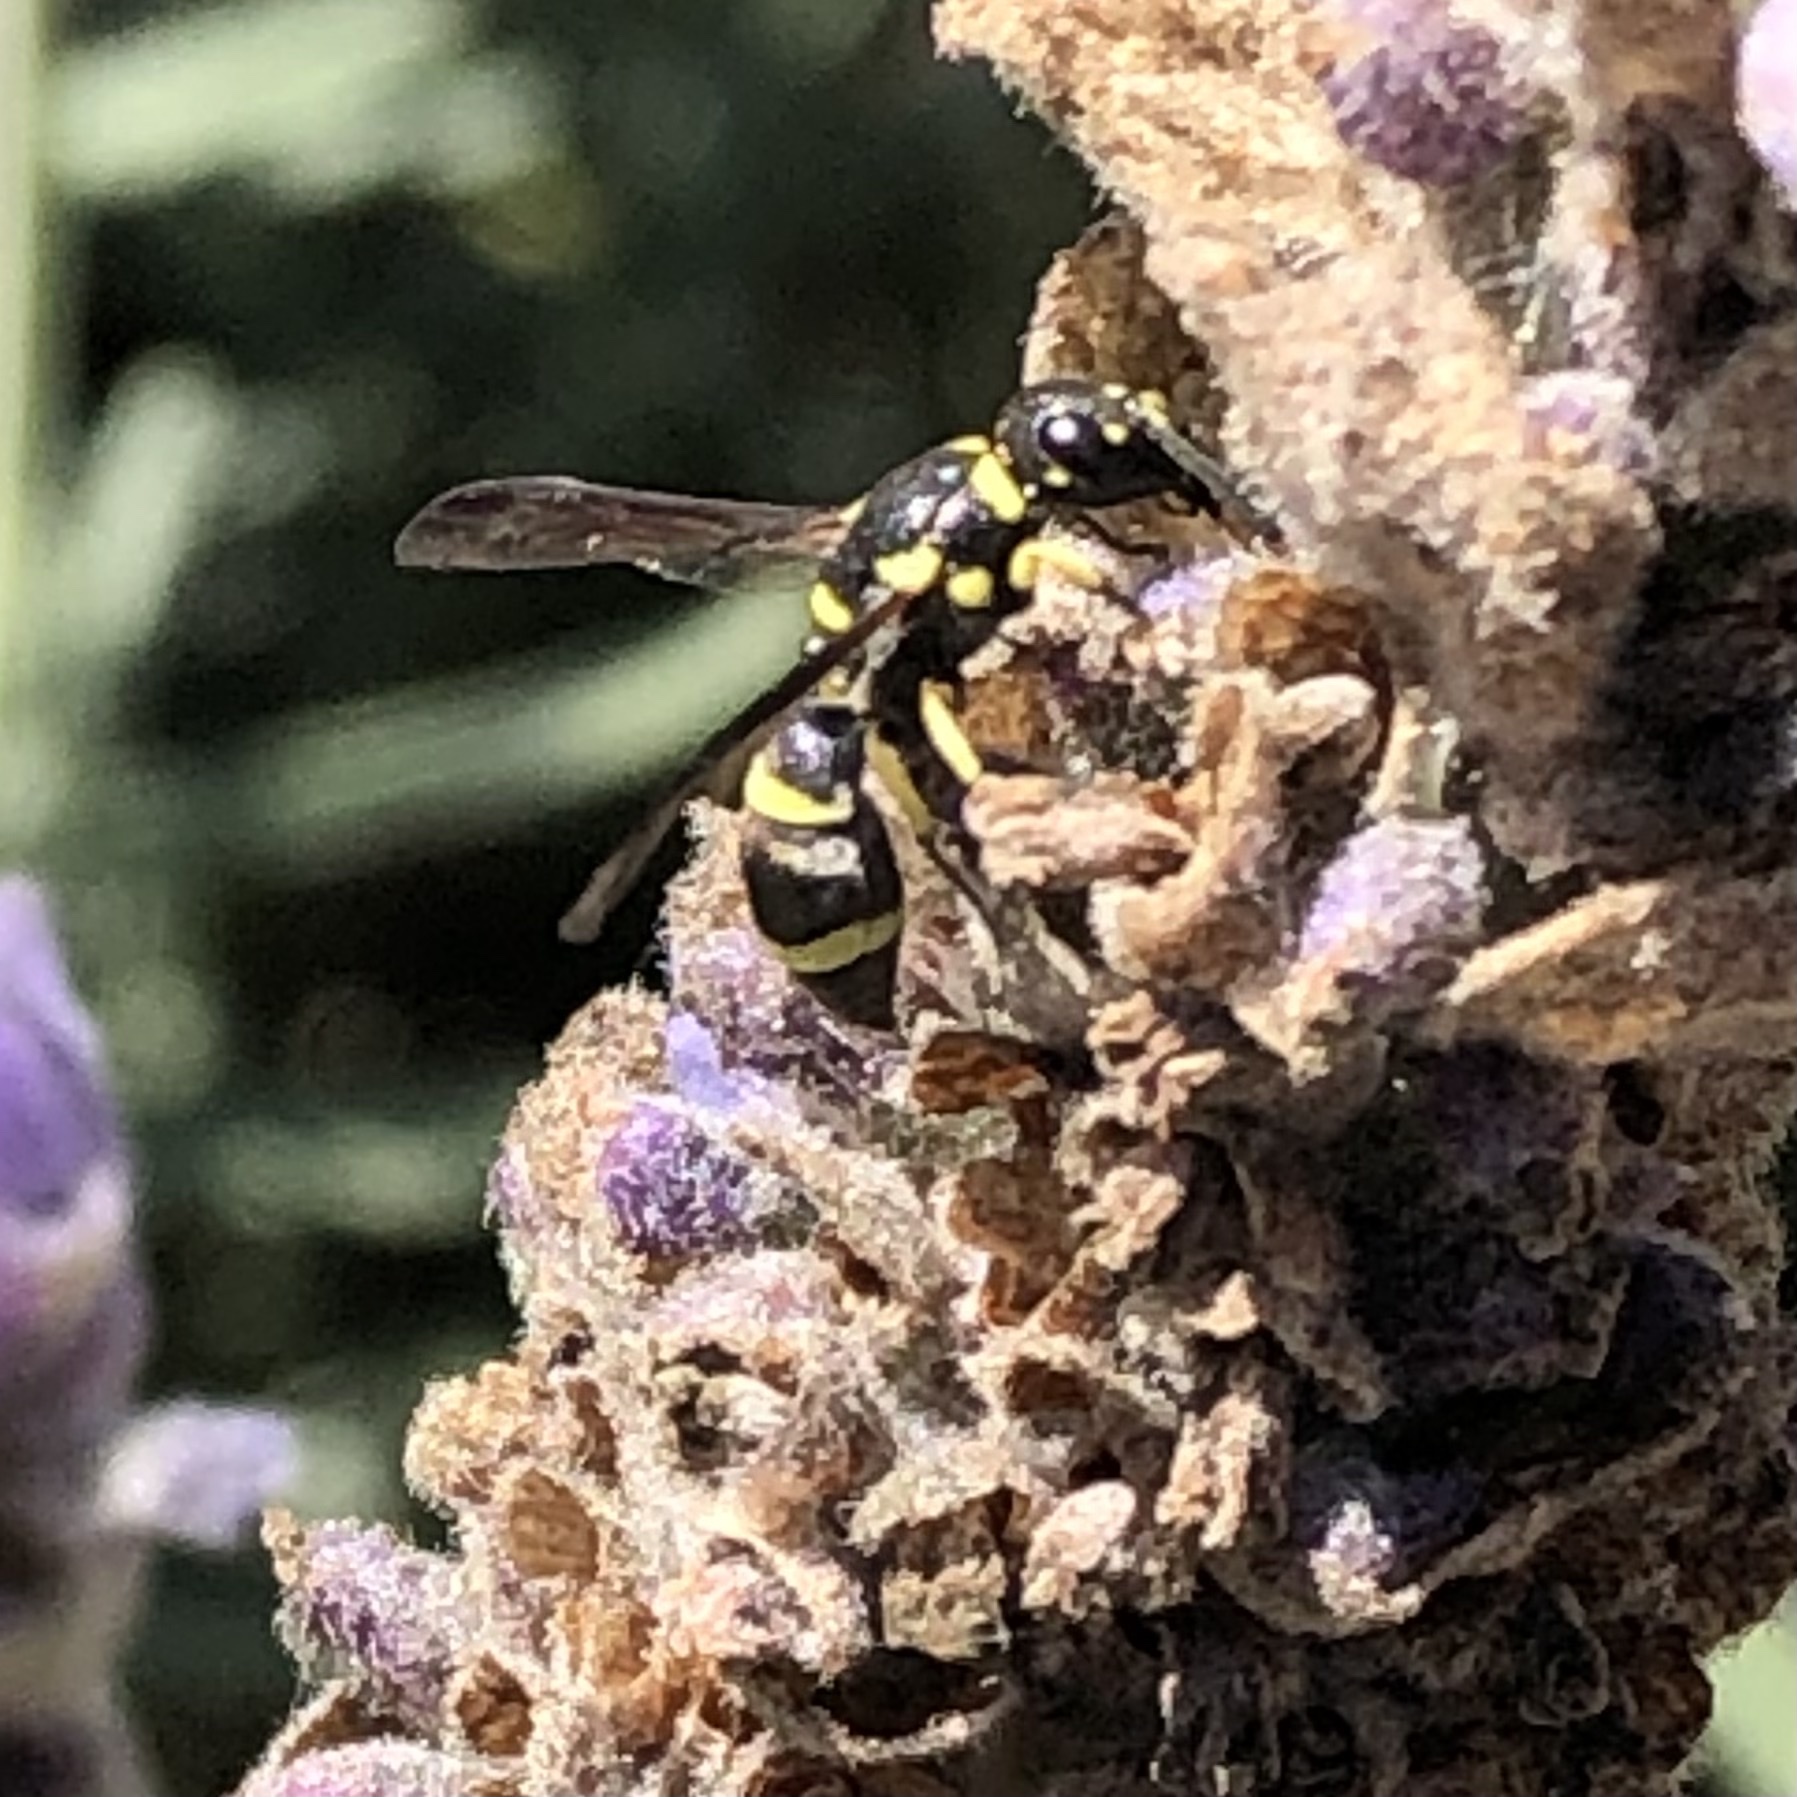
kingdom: Animalia
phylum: Arthropoda
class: Insecta
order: Hymenoptera
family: Eumenidae
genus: Parancistrocerus
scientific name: Parancistrocerus declivatus
